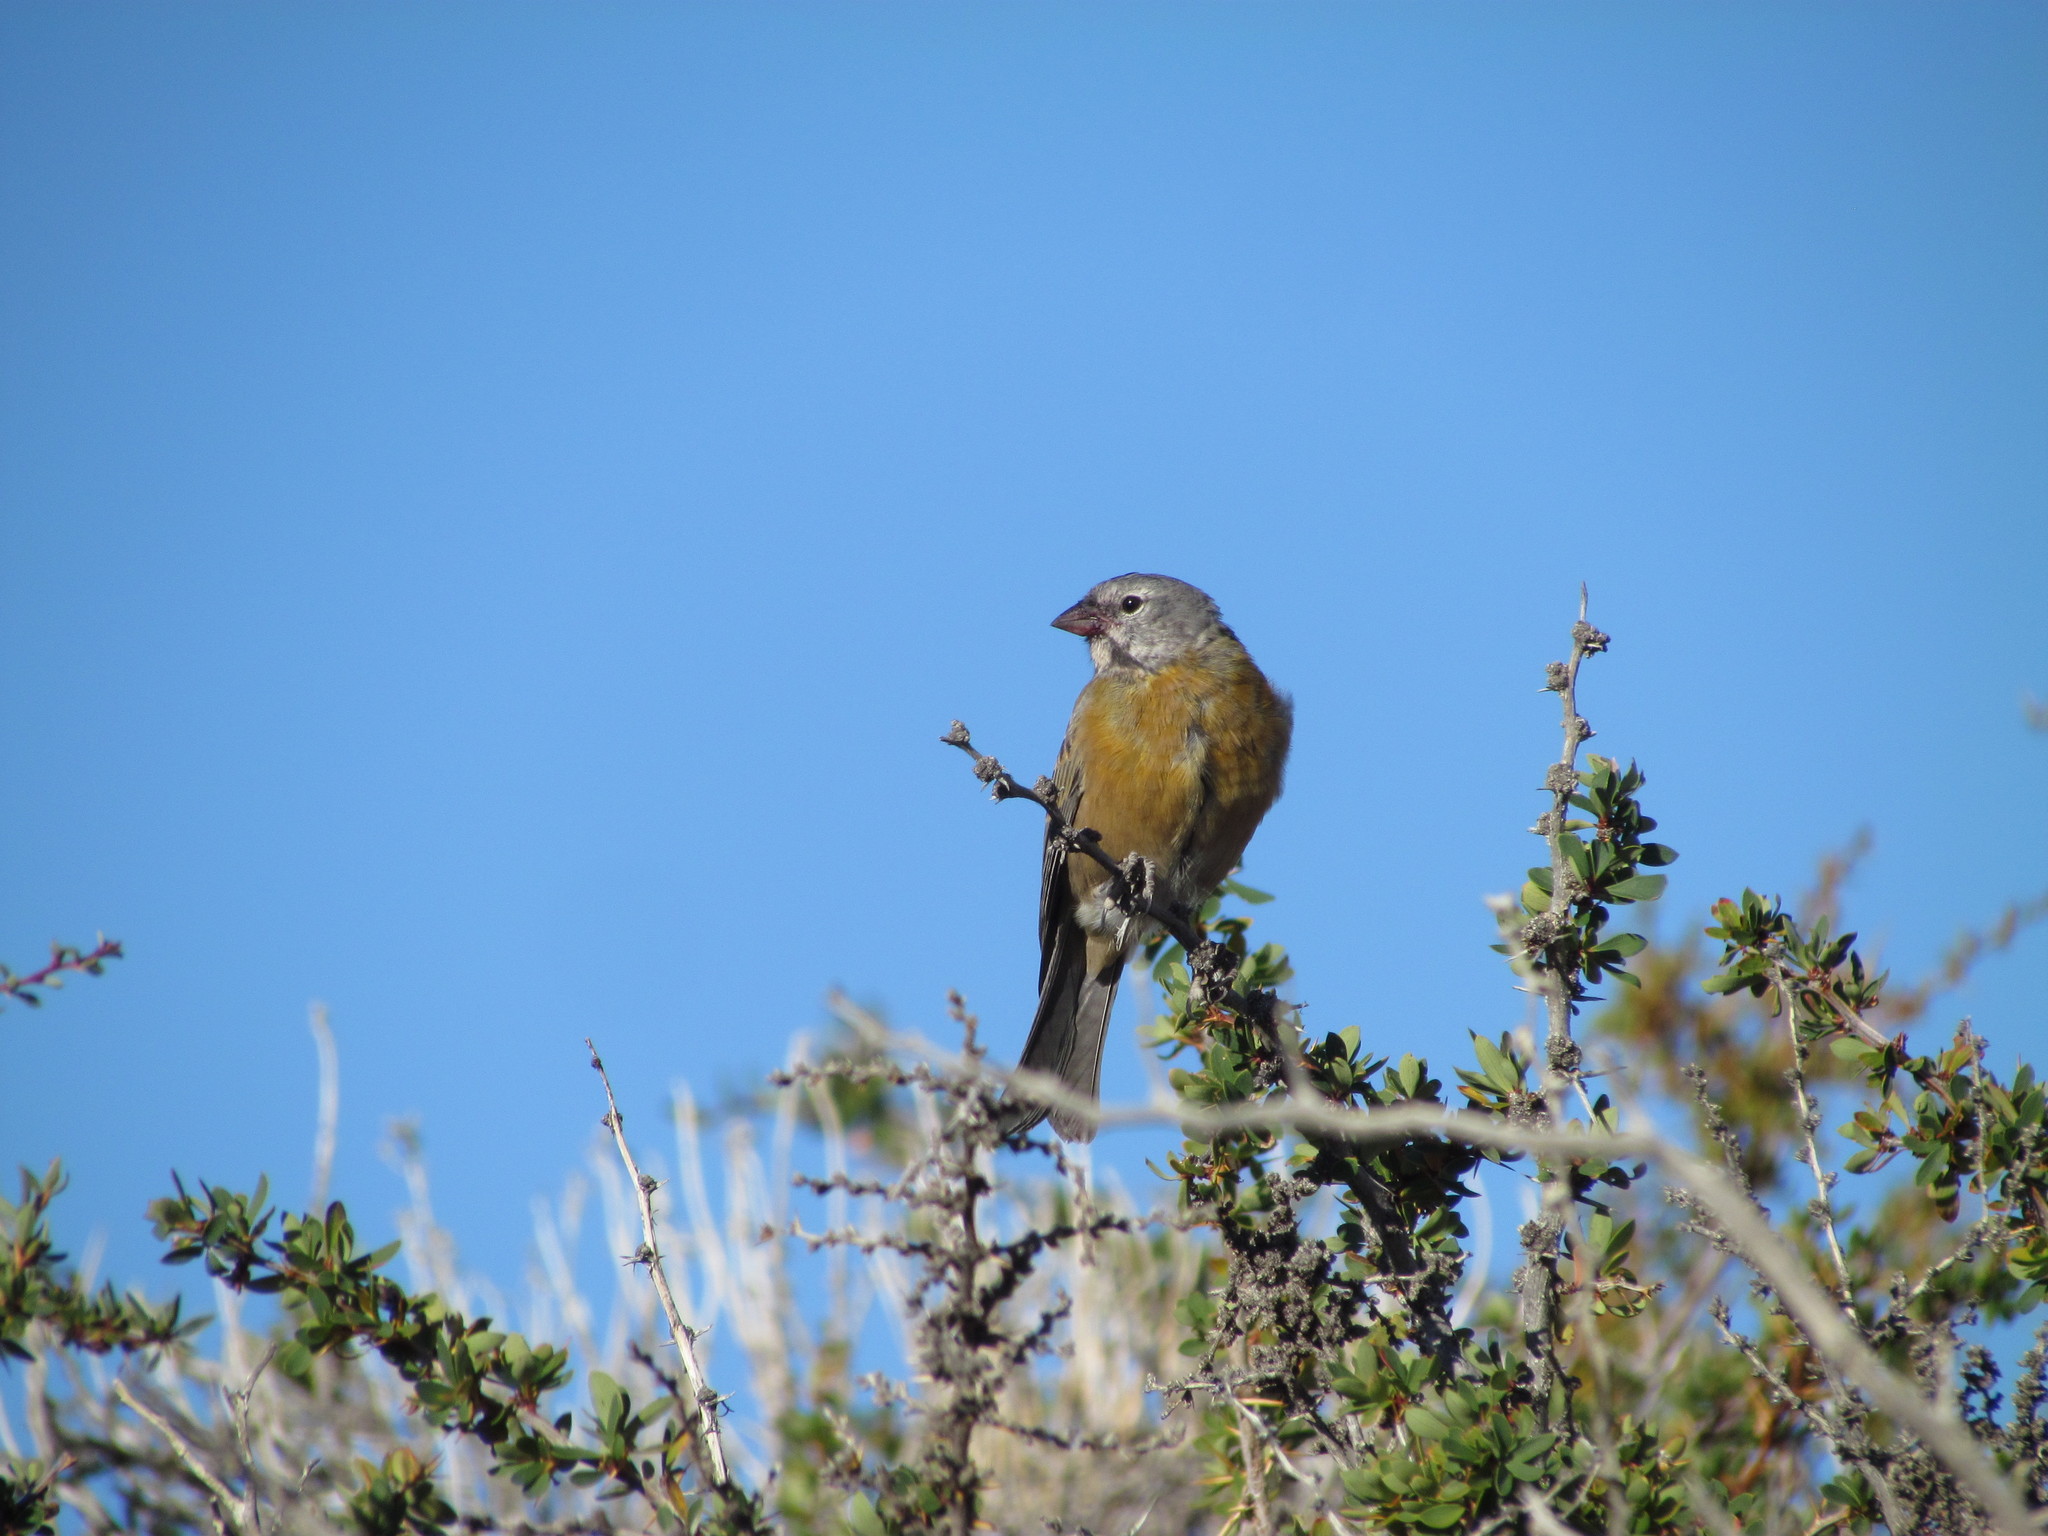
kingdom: Animalia
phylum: Chordata
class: Aves
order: Passeriformes
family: Thraupidae
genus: Phrygilus
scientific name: Phrygilus gayi
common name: Grey-hooded sierra finch
